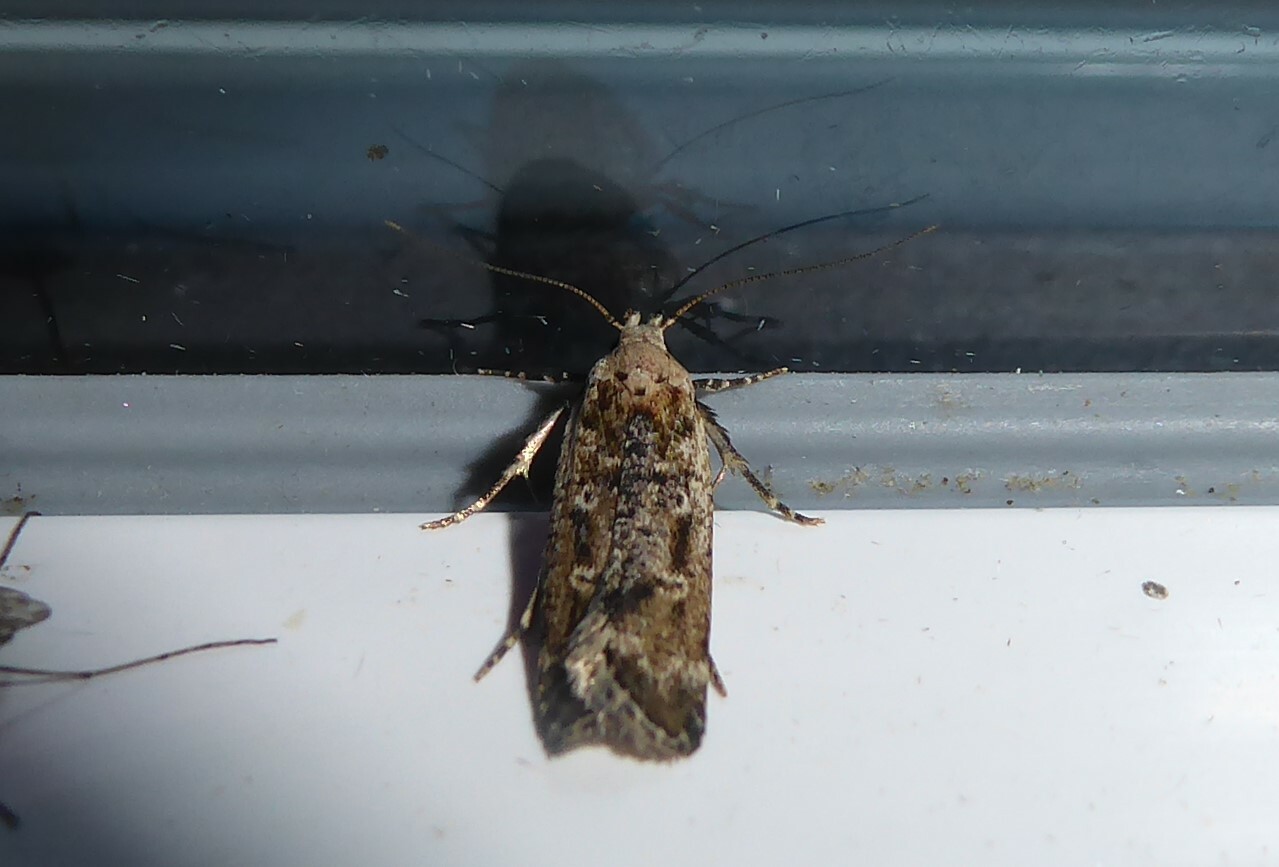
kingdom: Animalia
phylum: Arthropoda
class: Insecta
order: Lepidoptera
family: Gelechiidae
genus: Anisoplaca
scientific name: Anisoplaca achyrota
